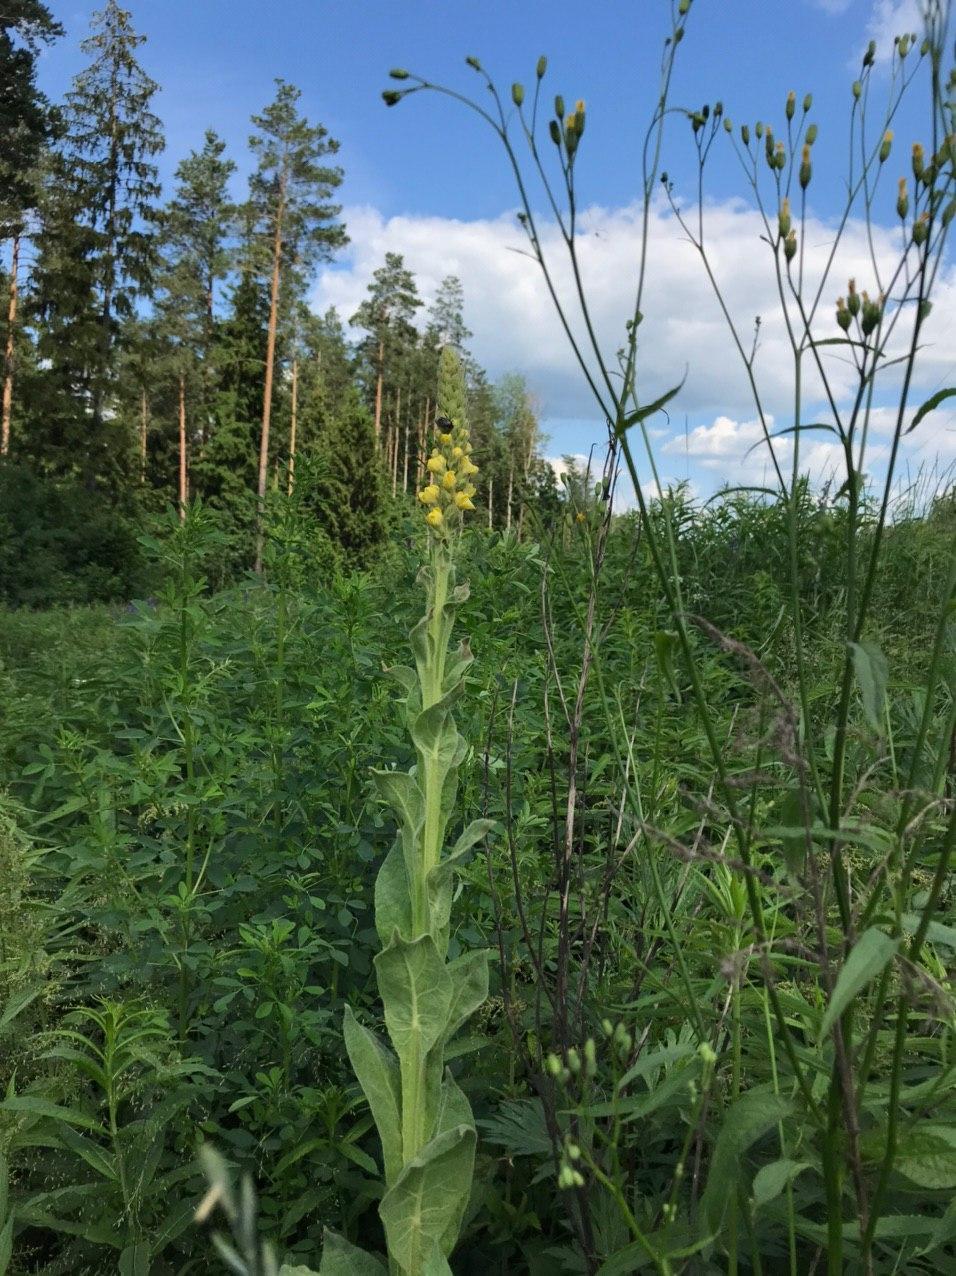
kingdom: Plantae
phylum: Tracheophyta
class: Magnoliopsida
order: Lamiales
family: Scrophulariaceae
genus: Verbascum
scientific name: Verbascum thapsus
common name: Common mullein
